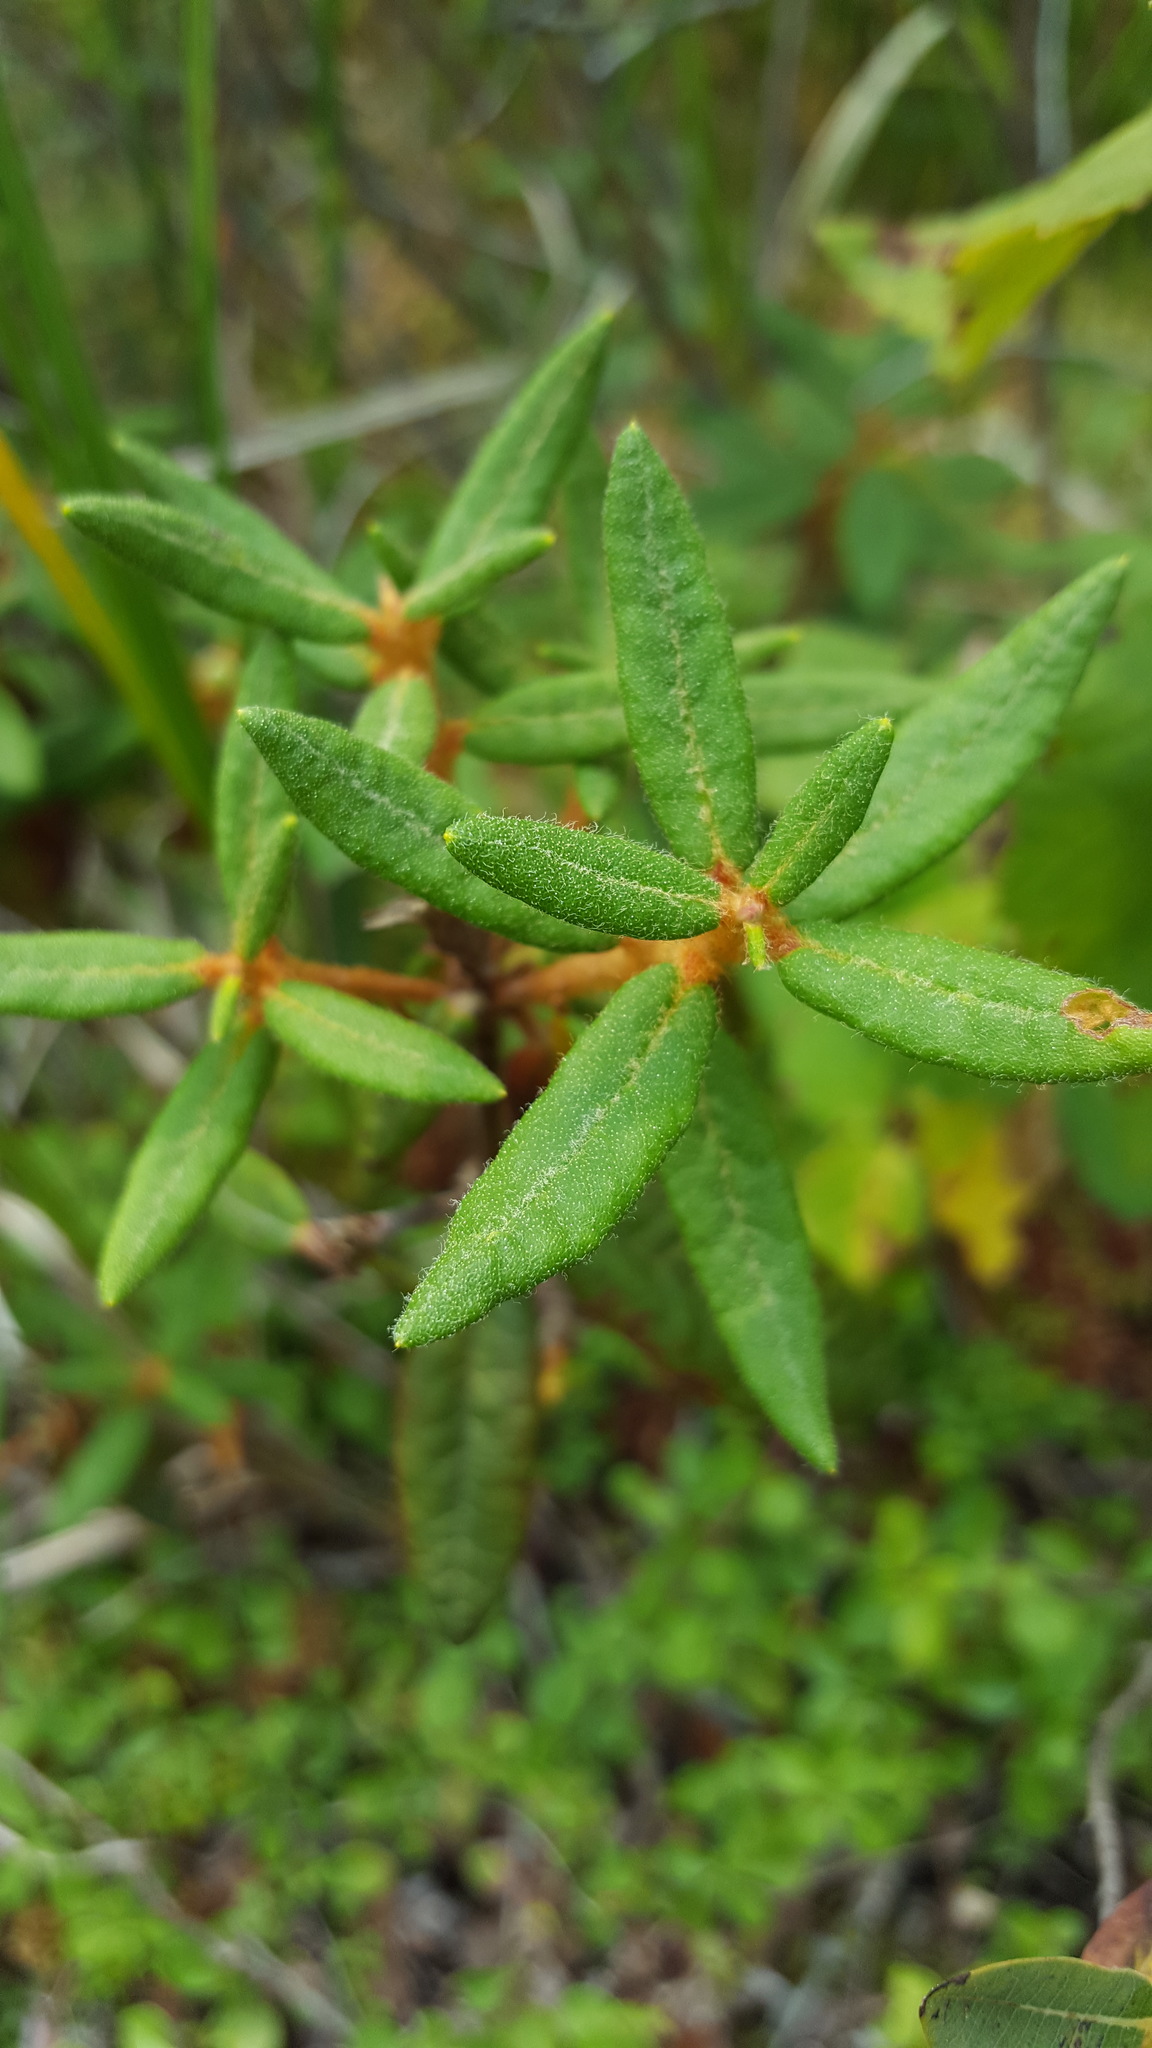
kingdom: Plantae
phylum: Tracheophyta
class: Magnoliopsida
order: Ericales
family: Ericaceae
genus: Rhododendron
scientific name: Rhododendron groenlandicum
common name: Bog labrador tea
